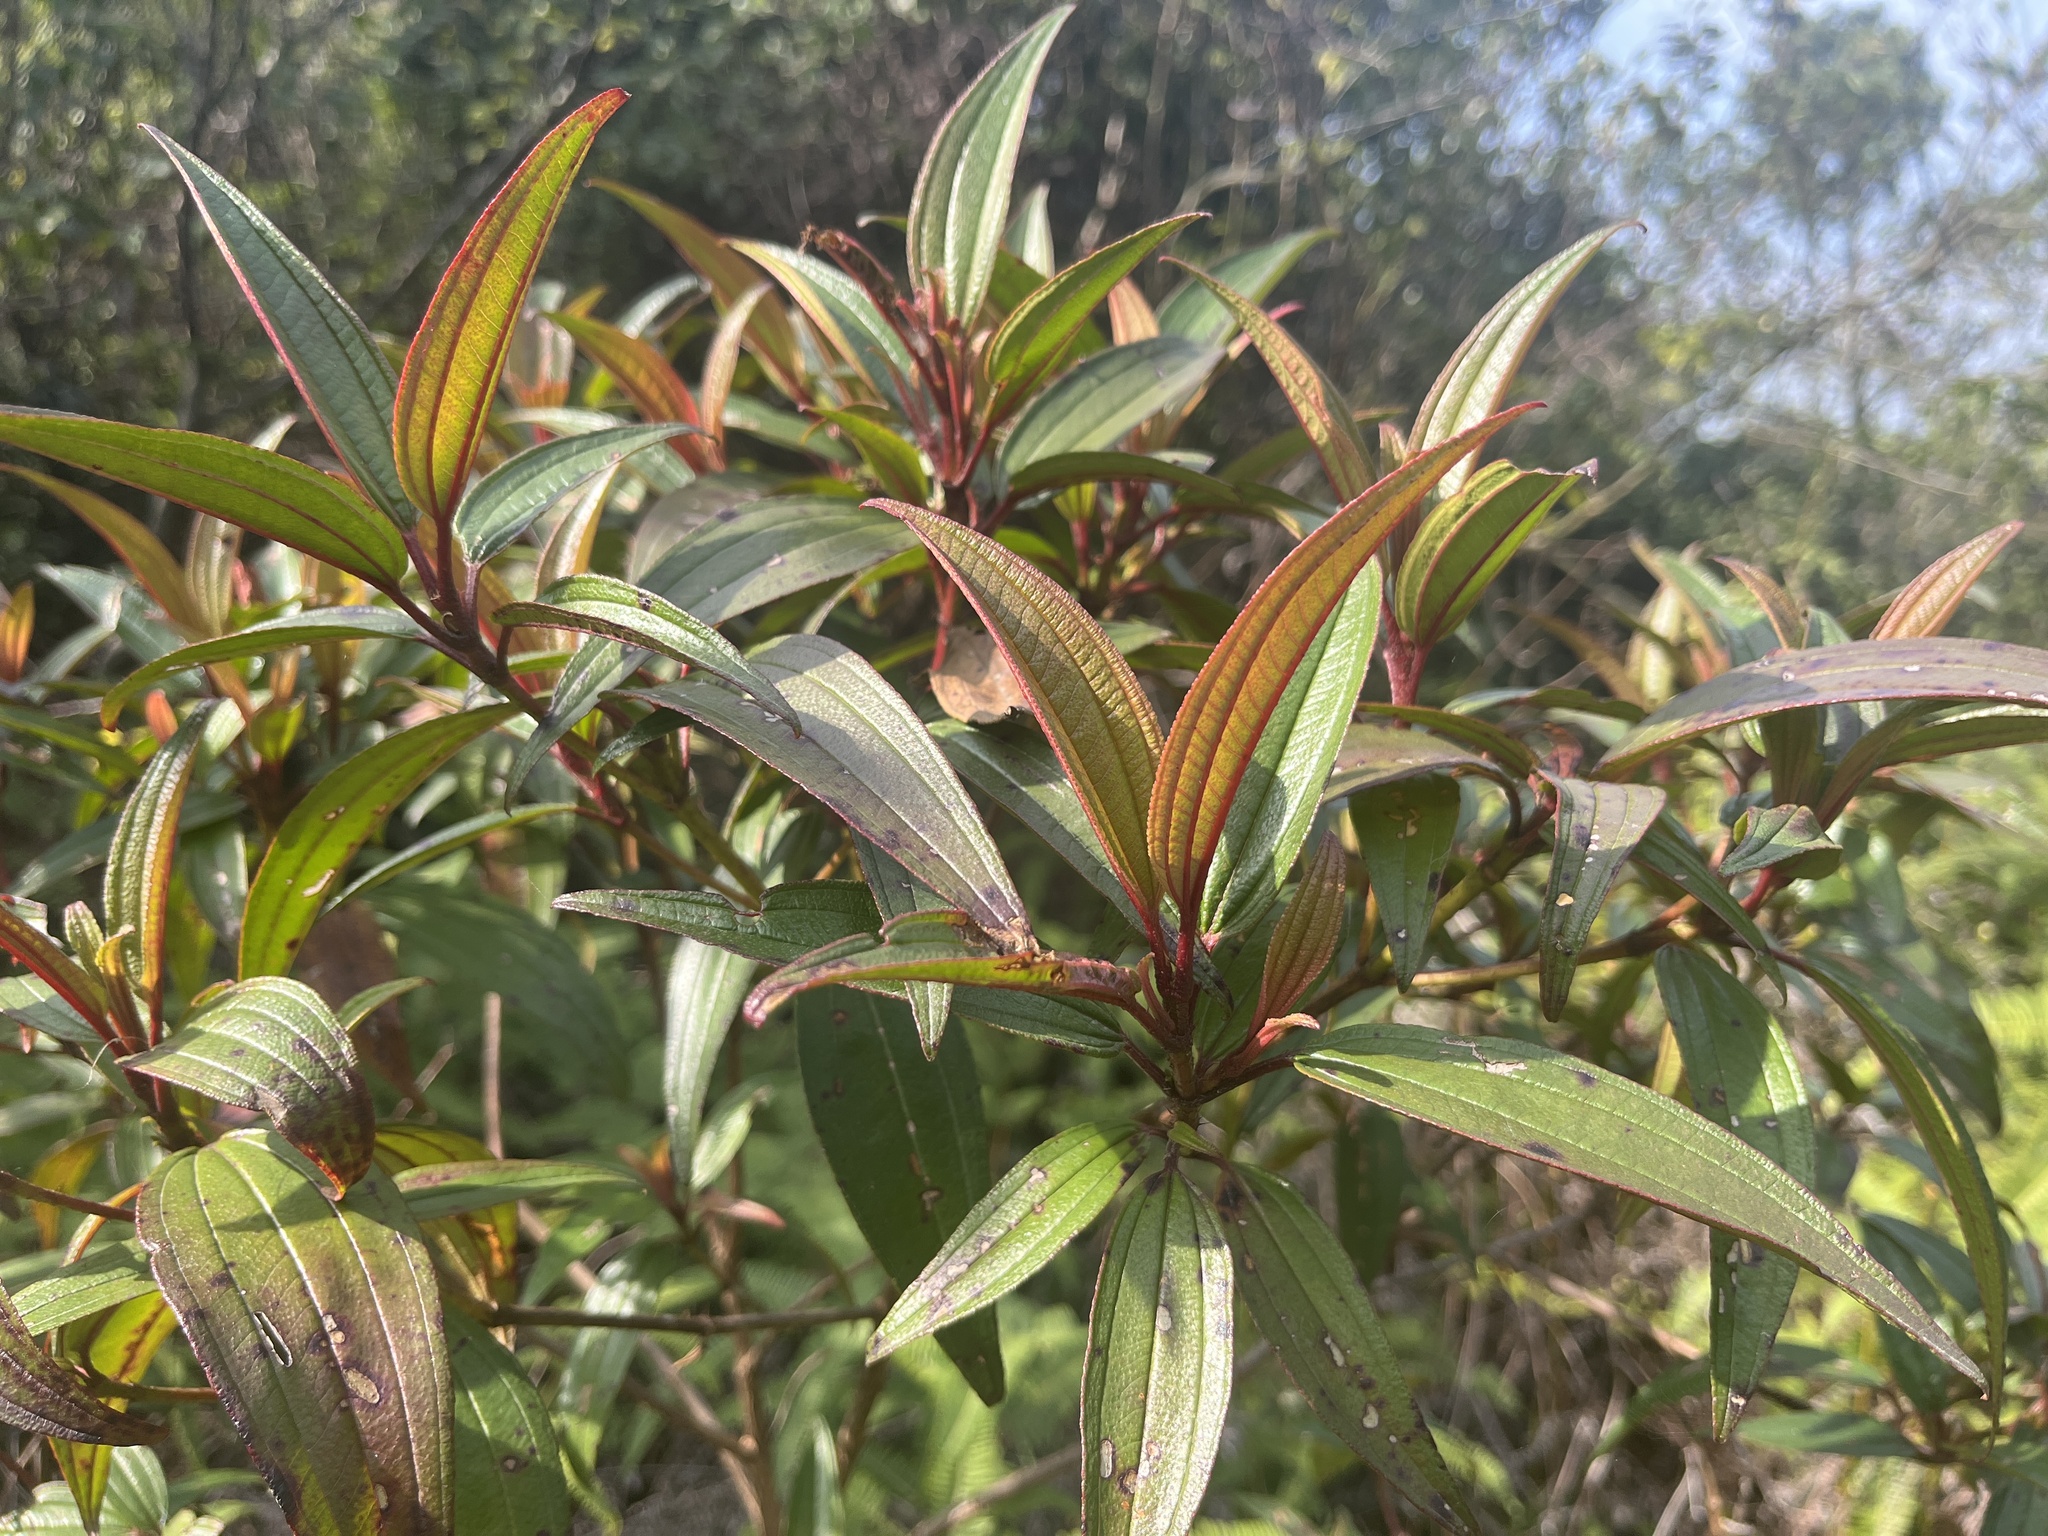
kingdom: Plantae
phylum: Tracheophyta
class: Magnoliopsida
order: Myrtales
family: Melastomataceae
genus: Melastoma
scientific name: Melastoma sanguineum
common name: Red melastome
